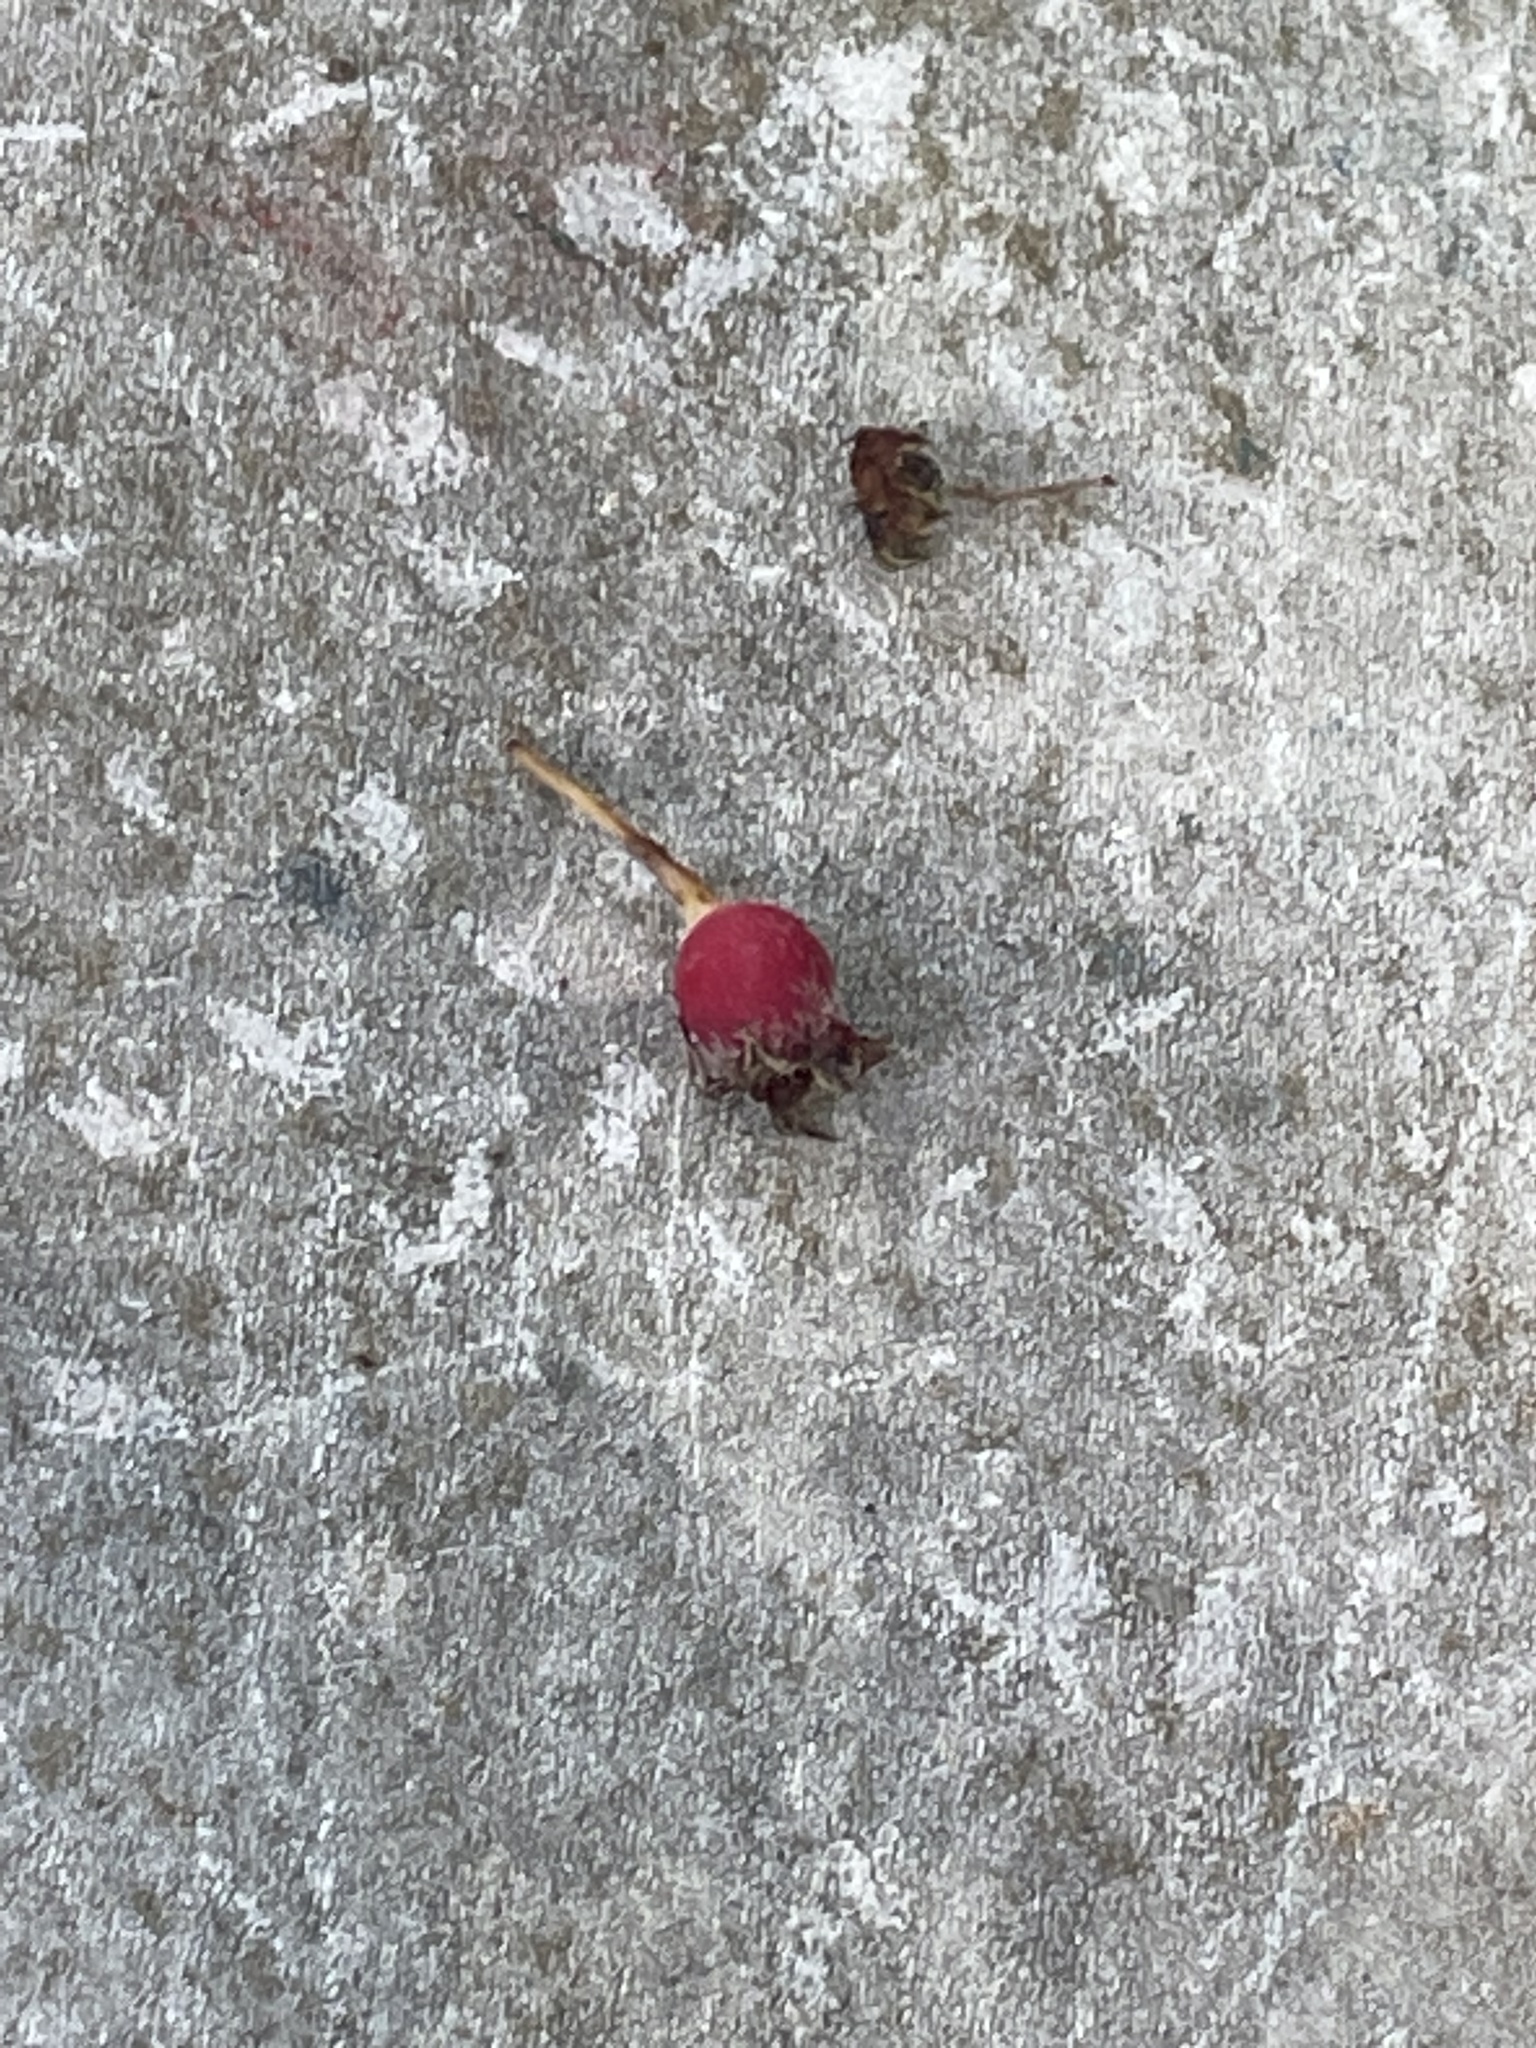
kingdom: Plantae
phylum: Tracheophyta
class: Magnoliopsida
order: Rosales
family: Rosaceae
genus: Potentilla
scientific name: Potentilla indica
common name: Yellow-flowered strawberry
